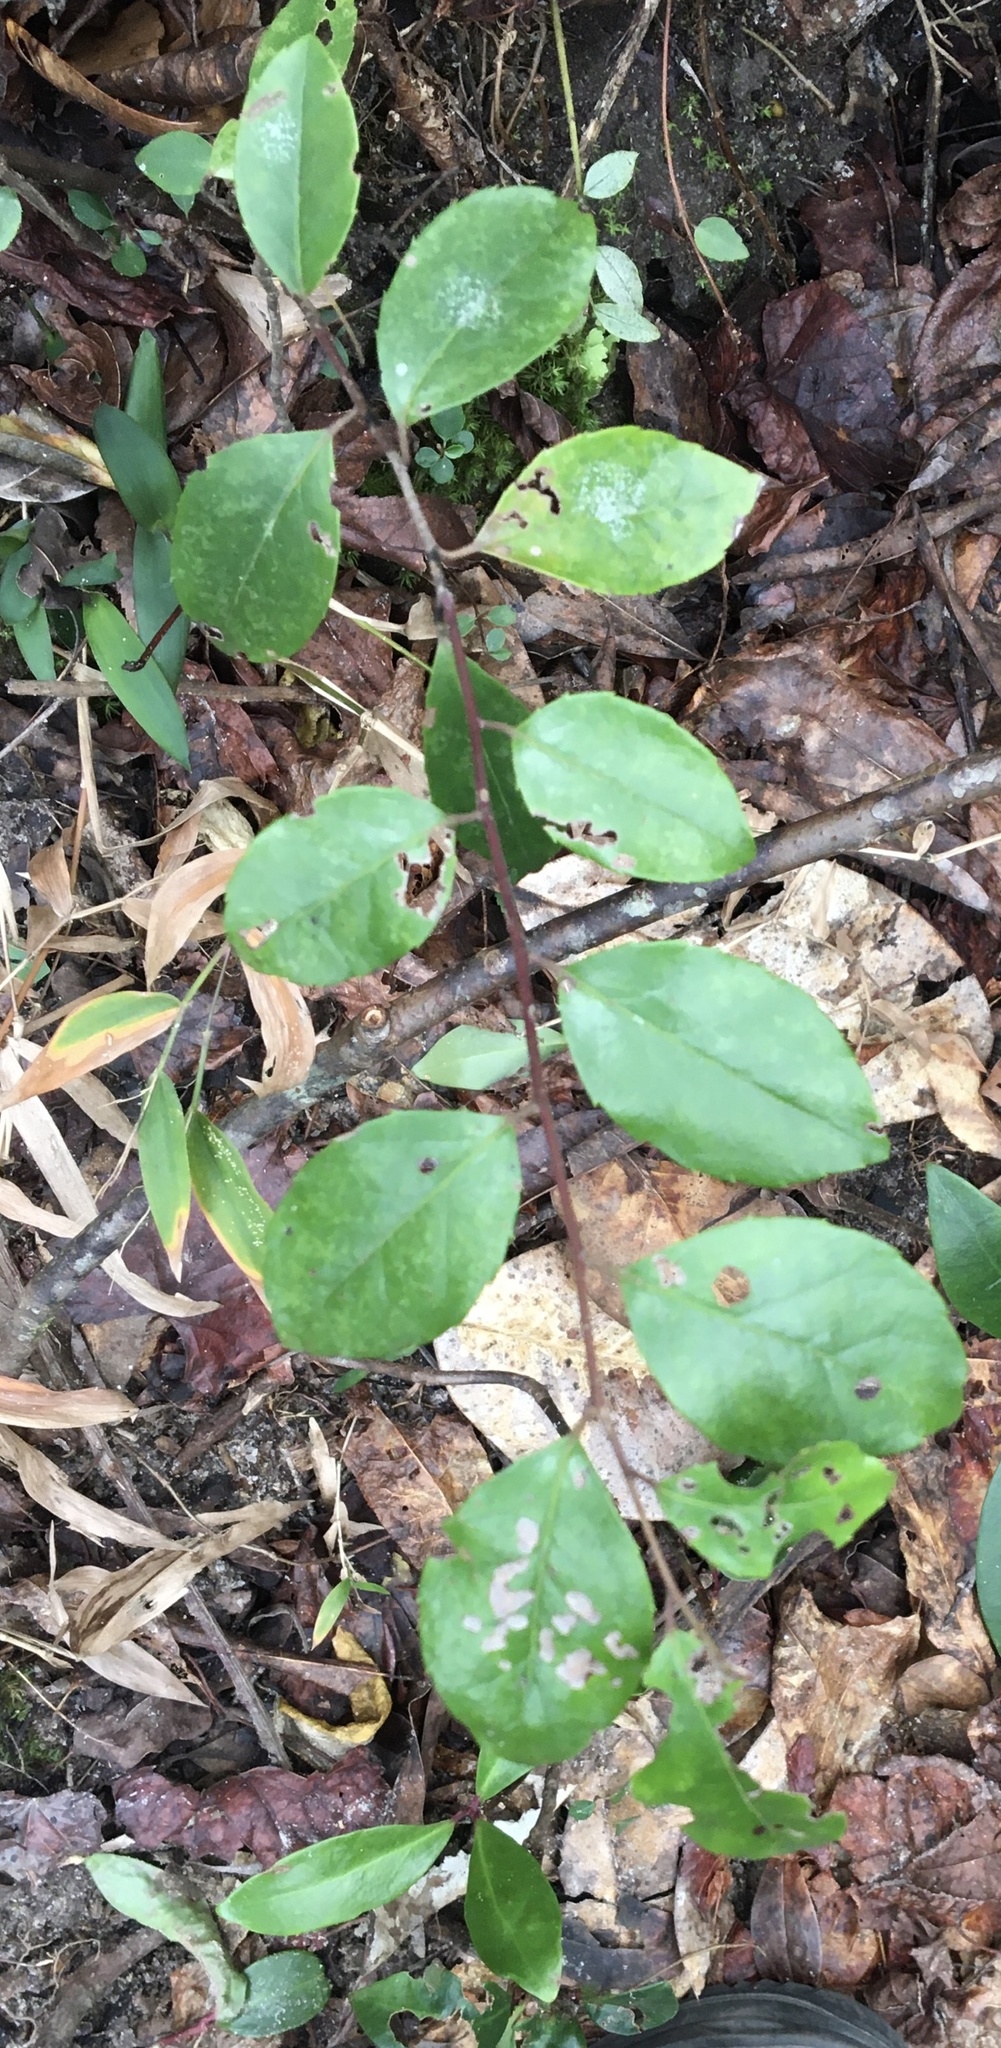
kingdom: Plantae
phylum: Tracheophyta
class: Magnoliopsida
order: Aquifoliales
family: Aquifoliaceae
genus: Ilex
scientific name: Ilex coriacea
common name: Sweet gallberry
